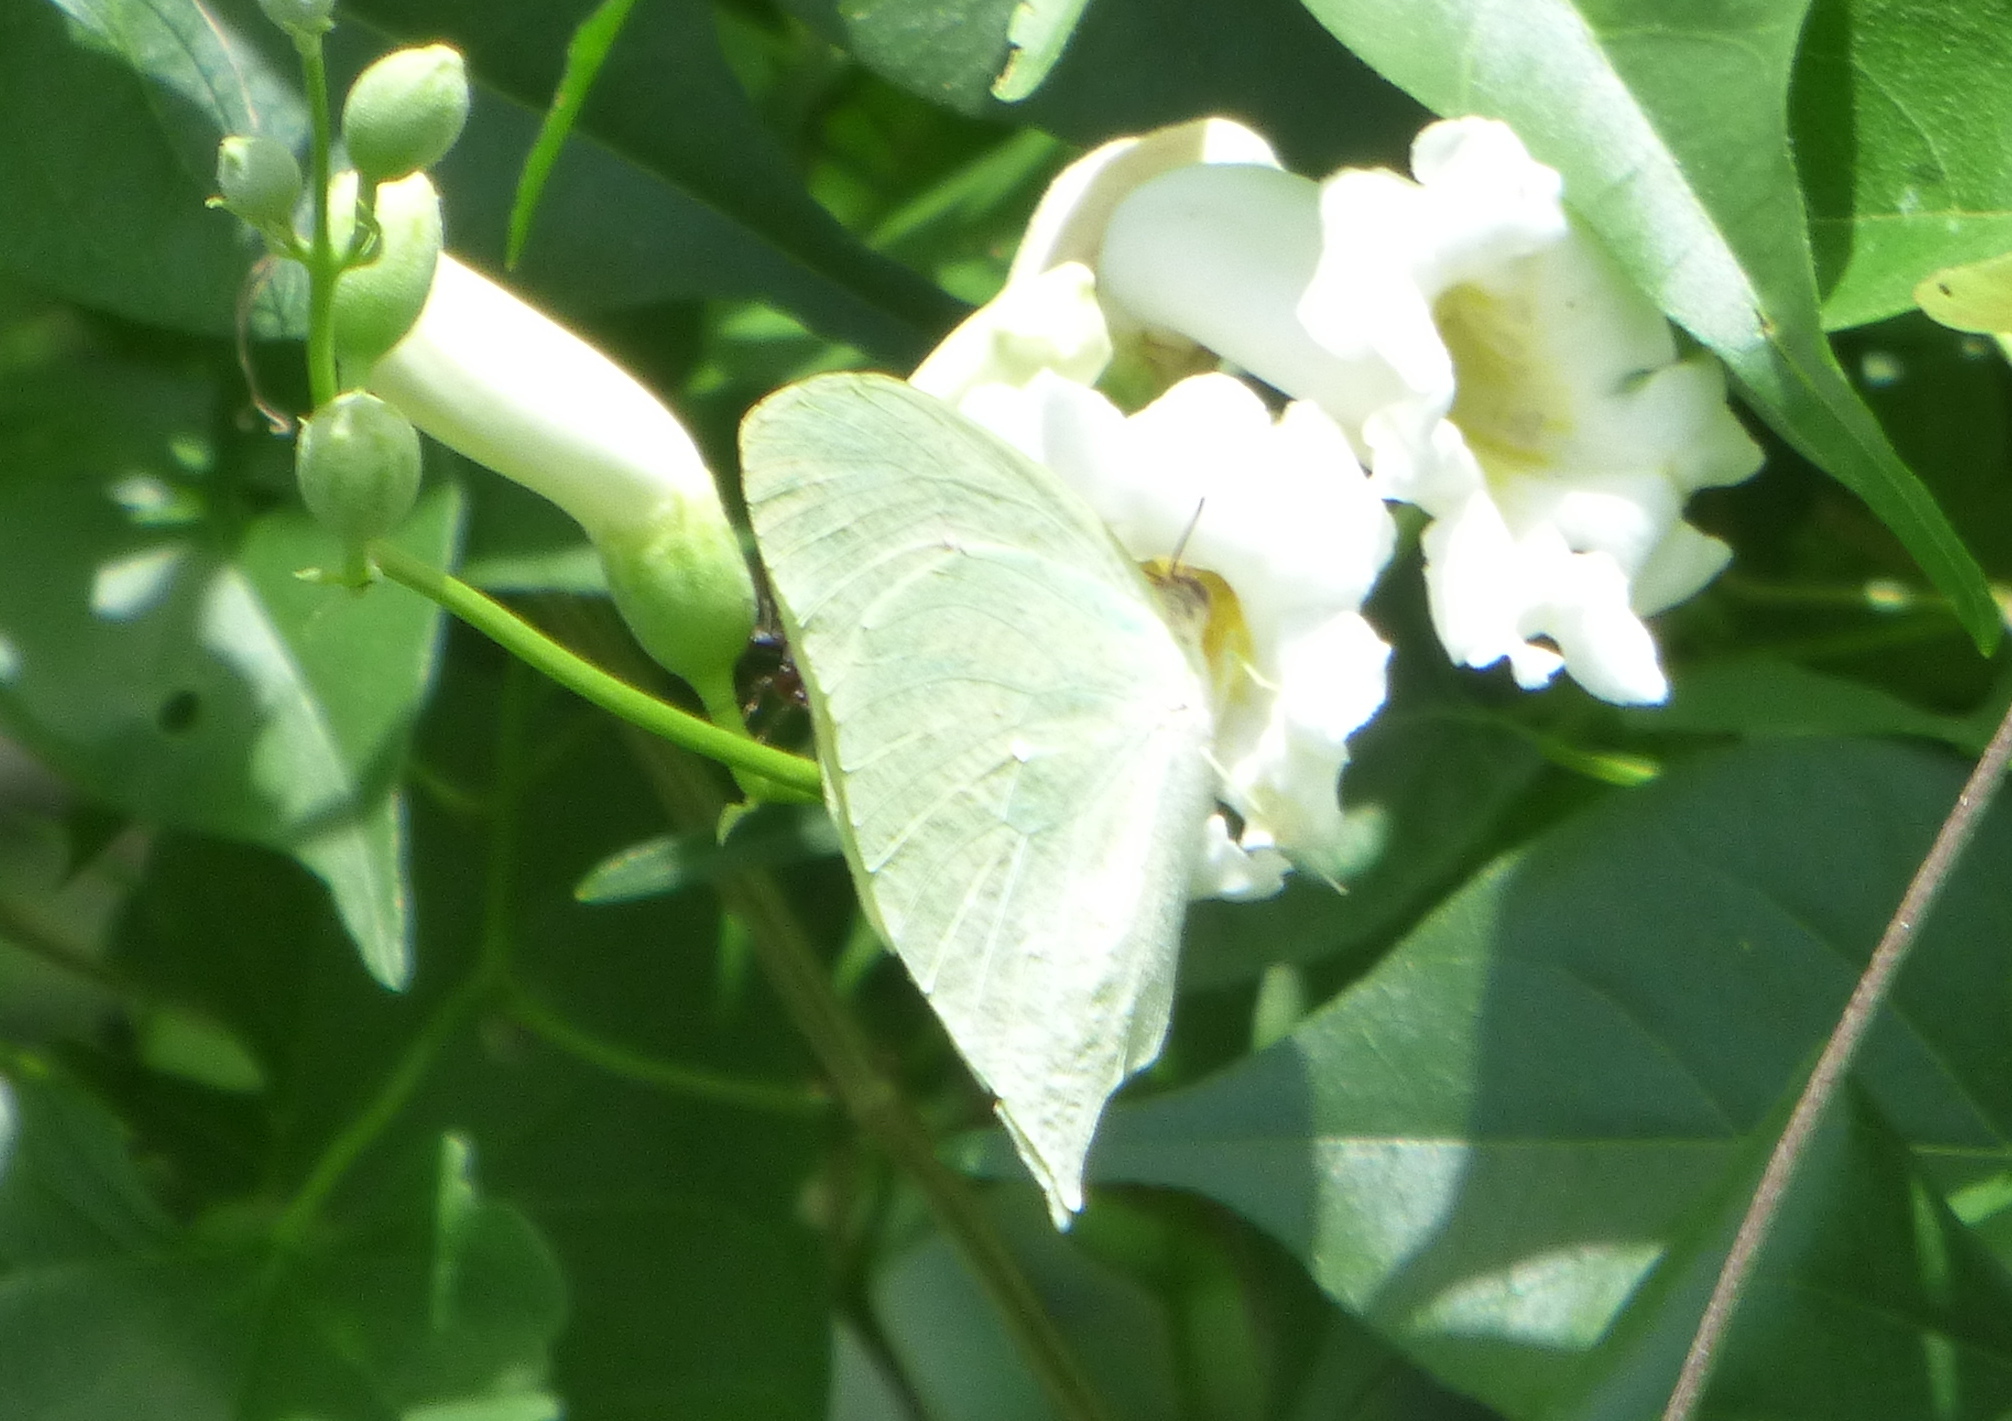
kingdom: Animalia
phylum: Arthropoda
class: Insecta
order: Lepidoptera
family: Pieridae
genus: Phoebis
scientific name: Phoebis neocypris
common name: Tailed sulphur
